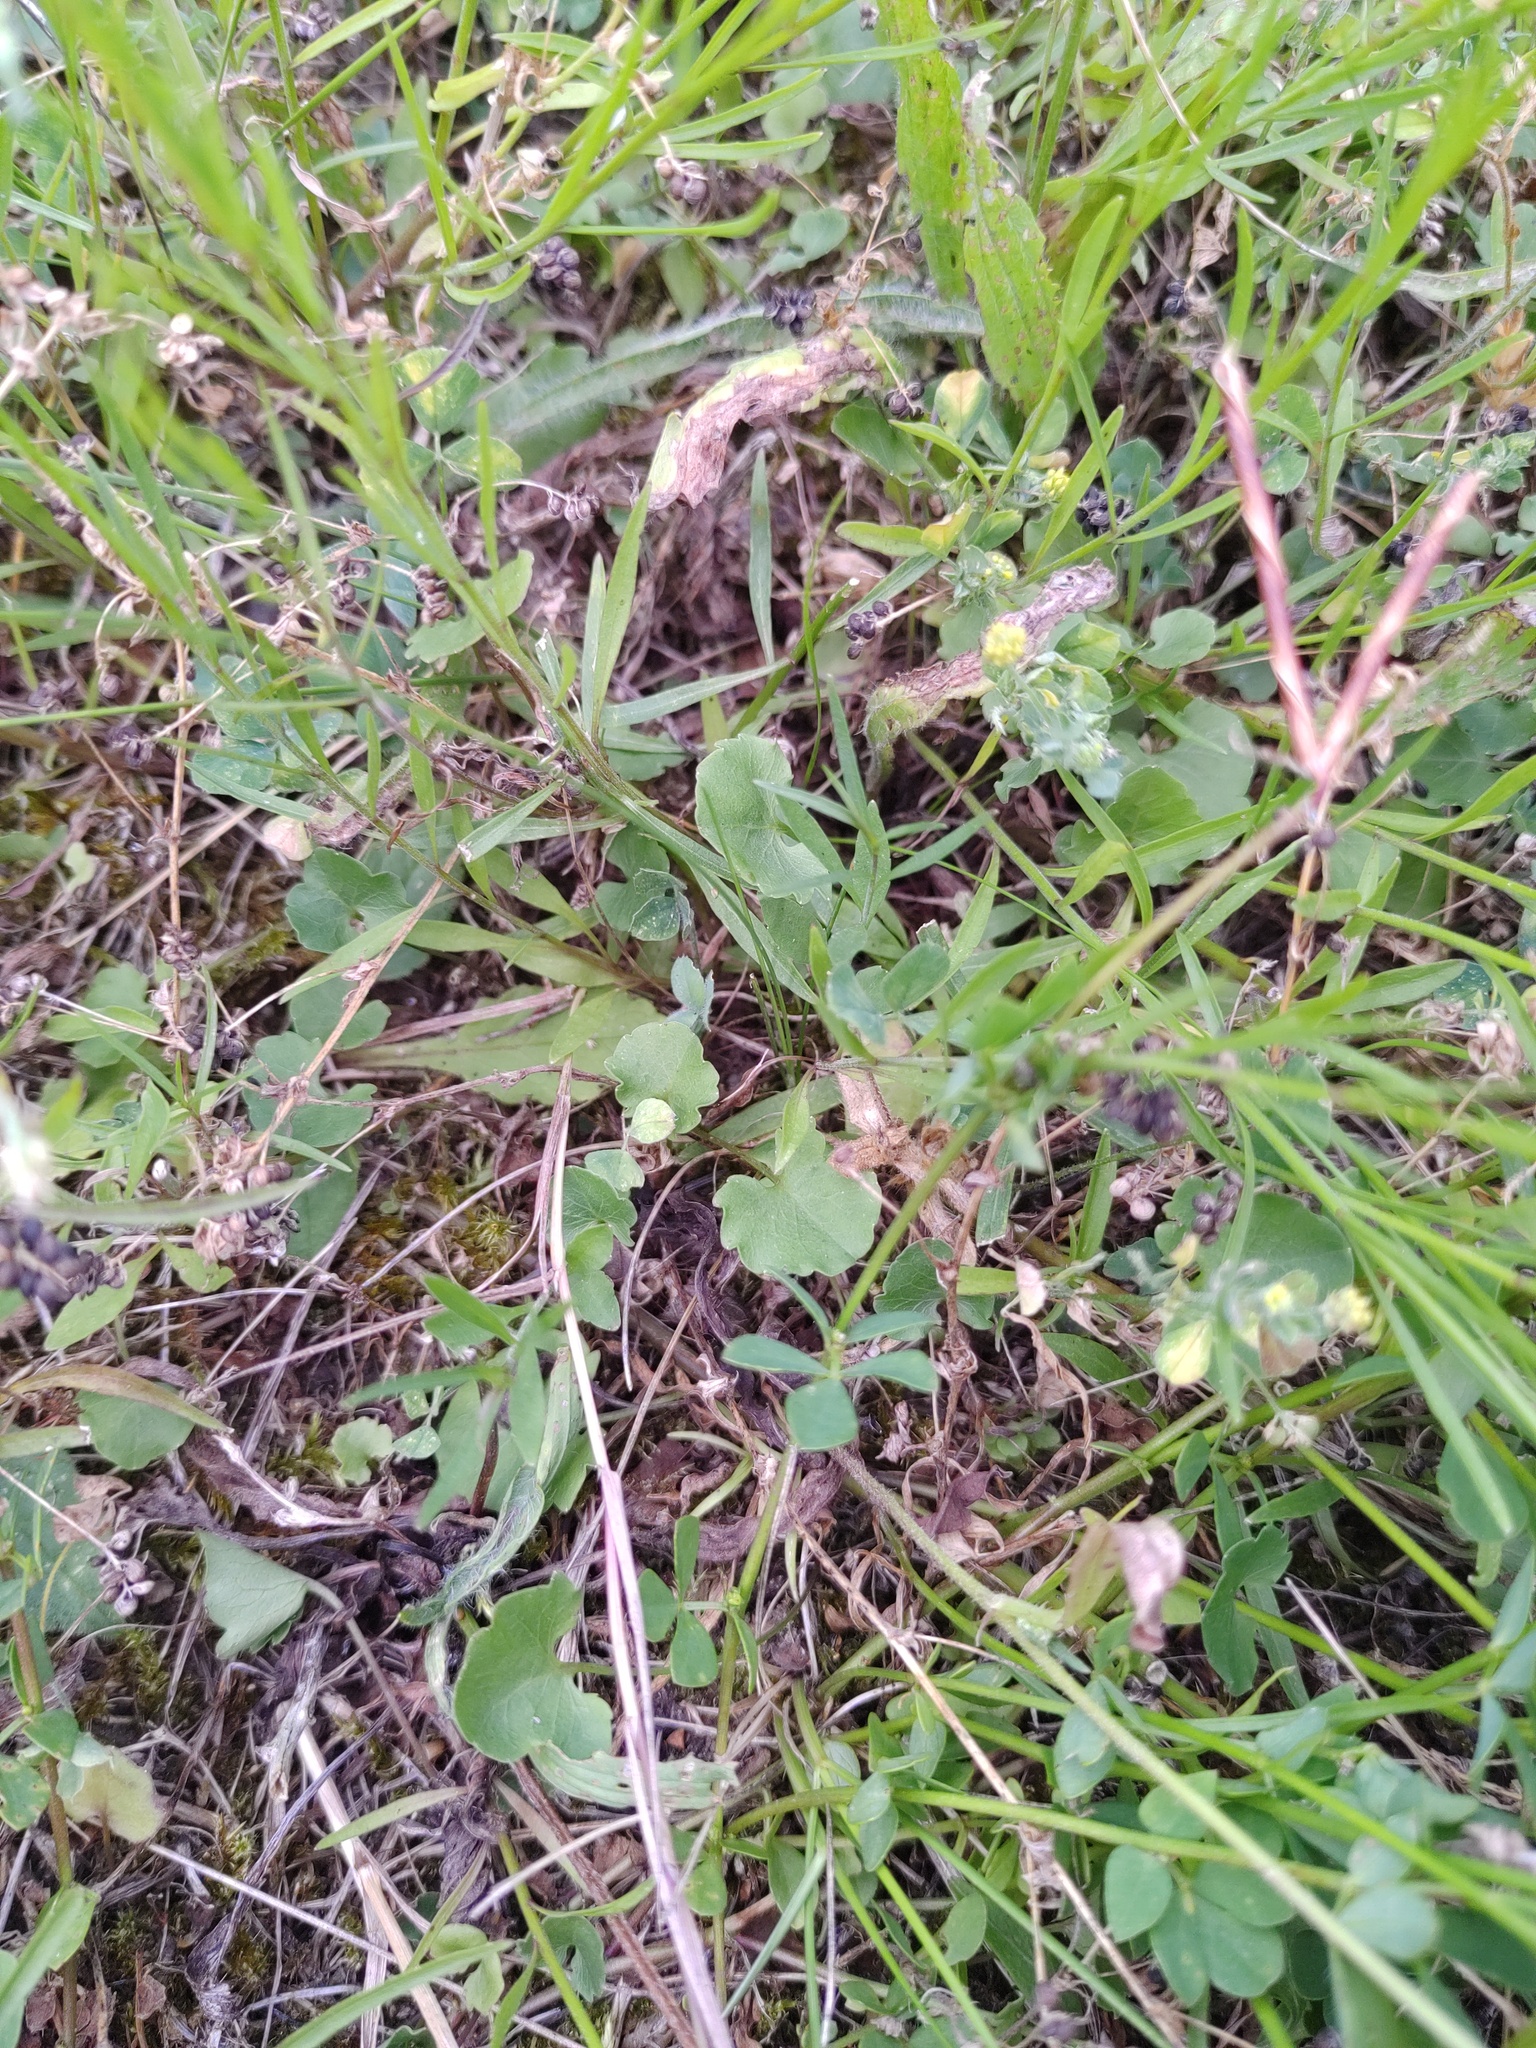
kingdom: Plantae
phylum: Tracheophyta
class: Magnoliopsida
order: Asterales
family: Campanulaceae
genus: Campanula
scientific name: Campanula rotundifolia
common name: Harebell
